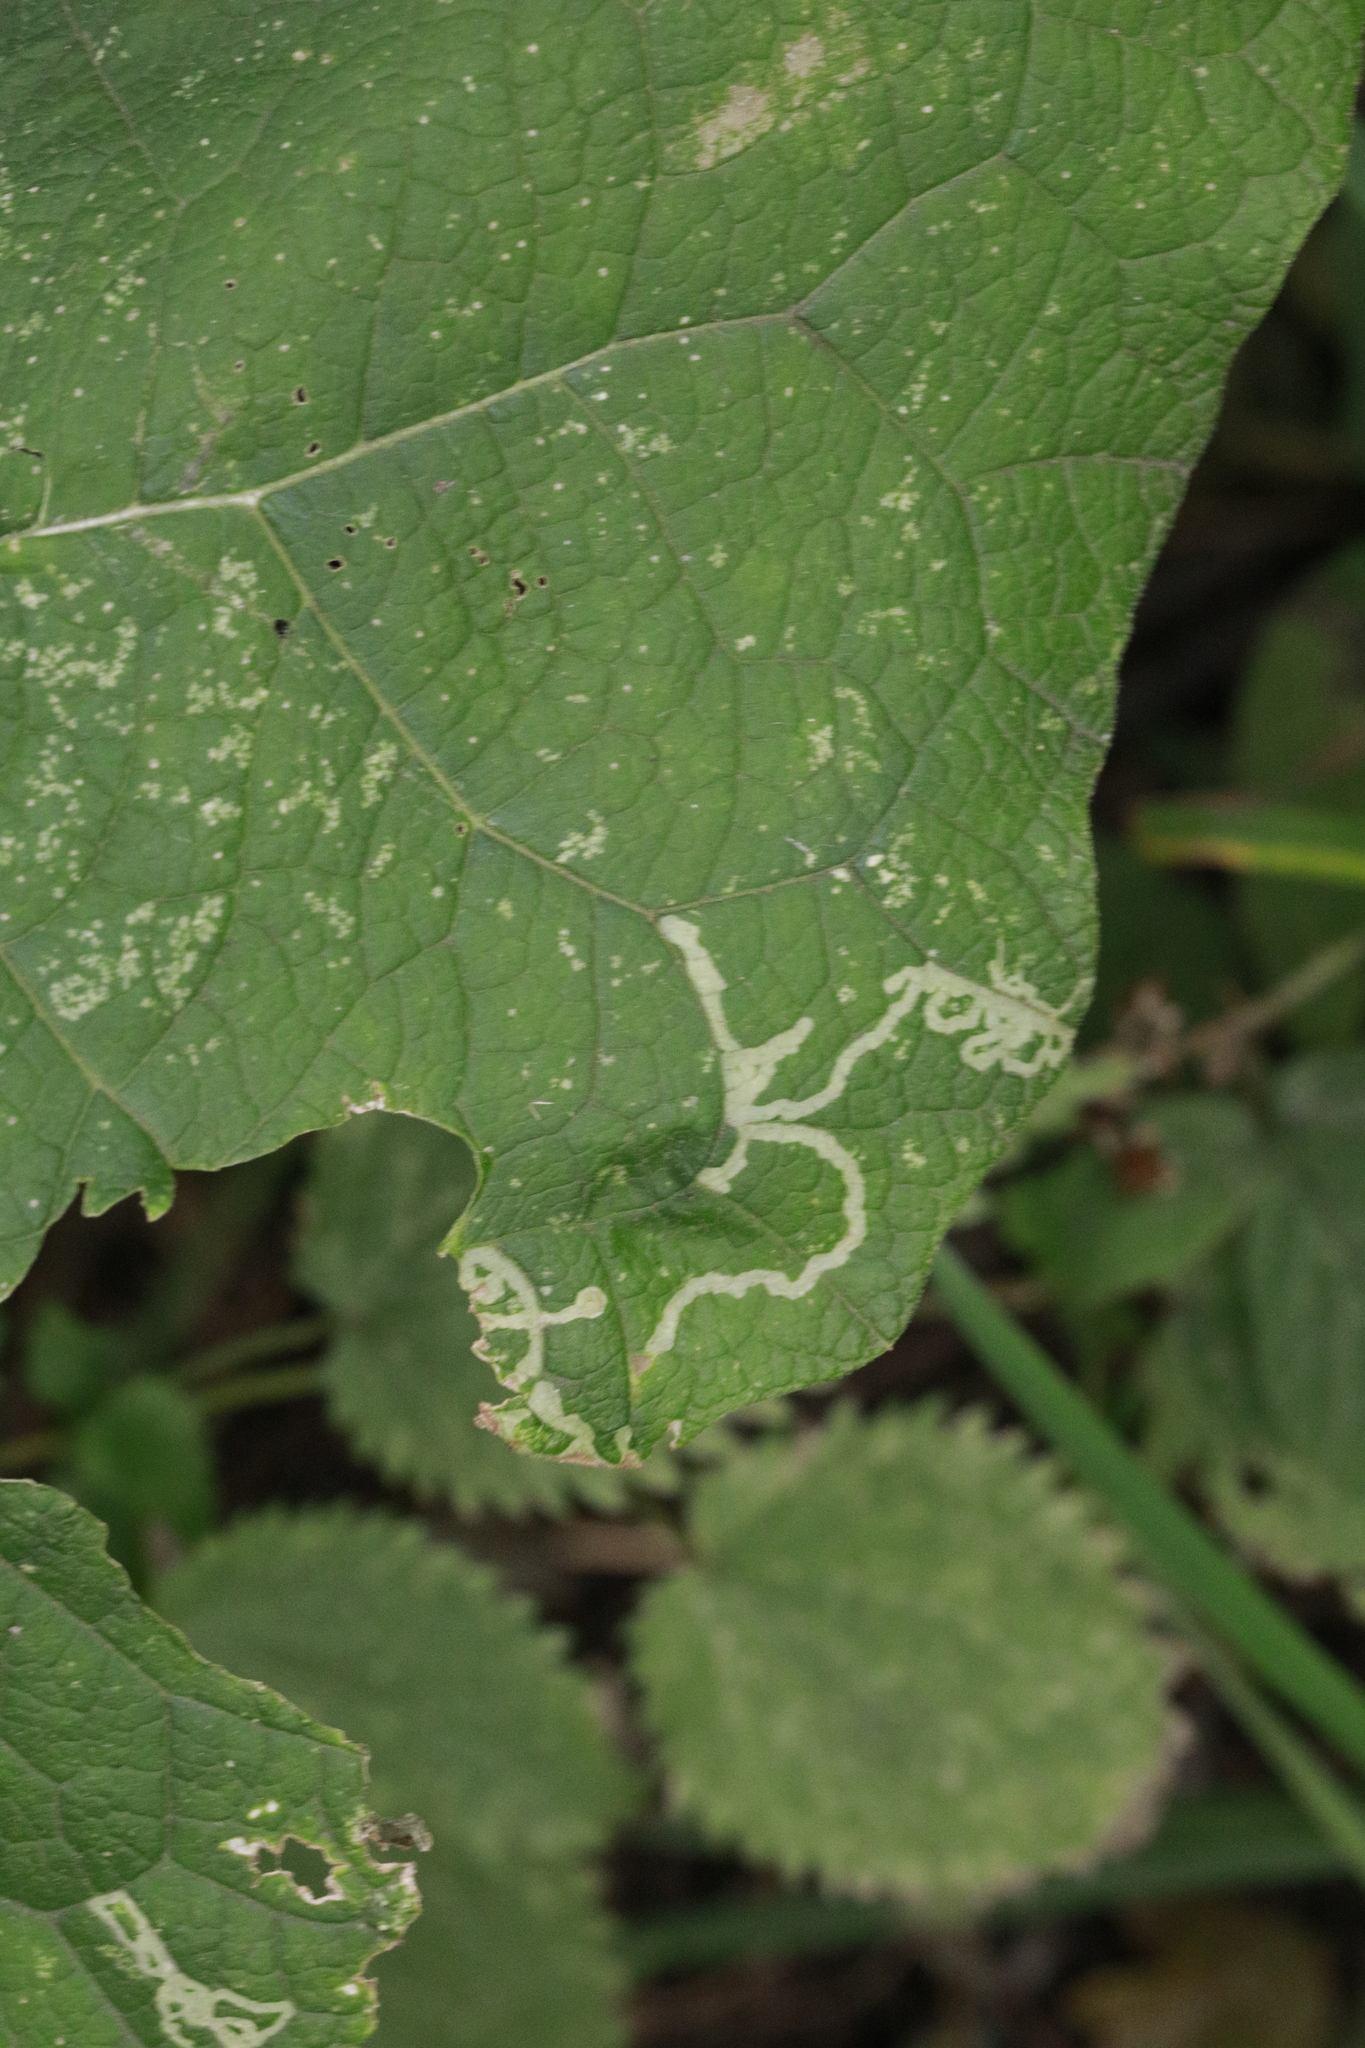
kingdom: Animalia
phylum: Arthropoda
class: Insecta
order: Diptera
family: Agromyzidae
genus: Phytomyza
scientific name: Phytomyza lappae
